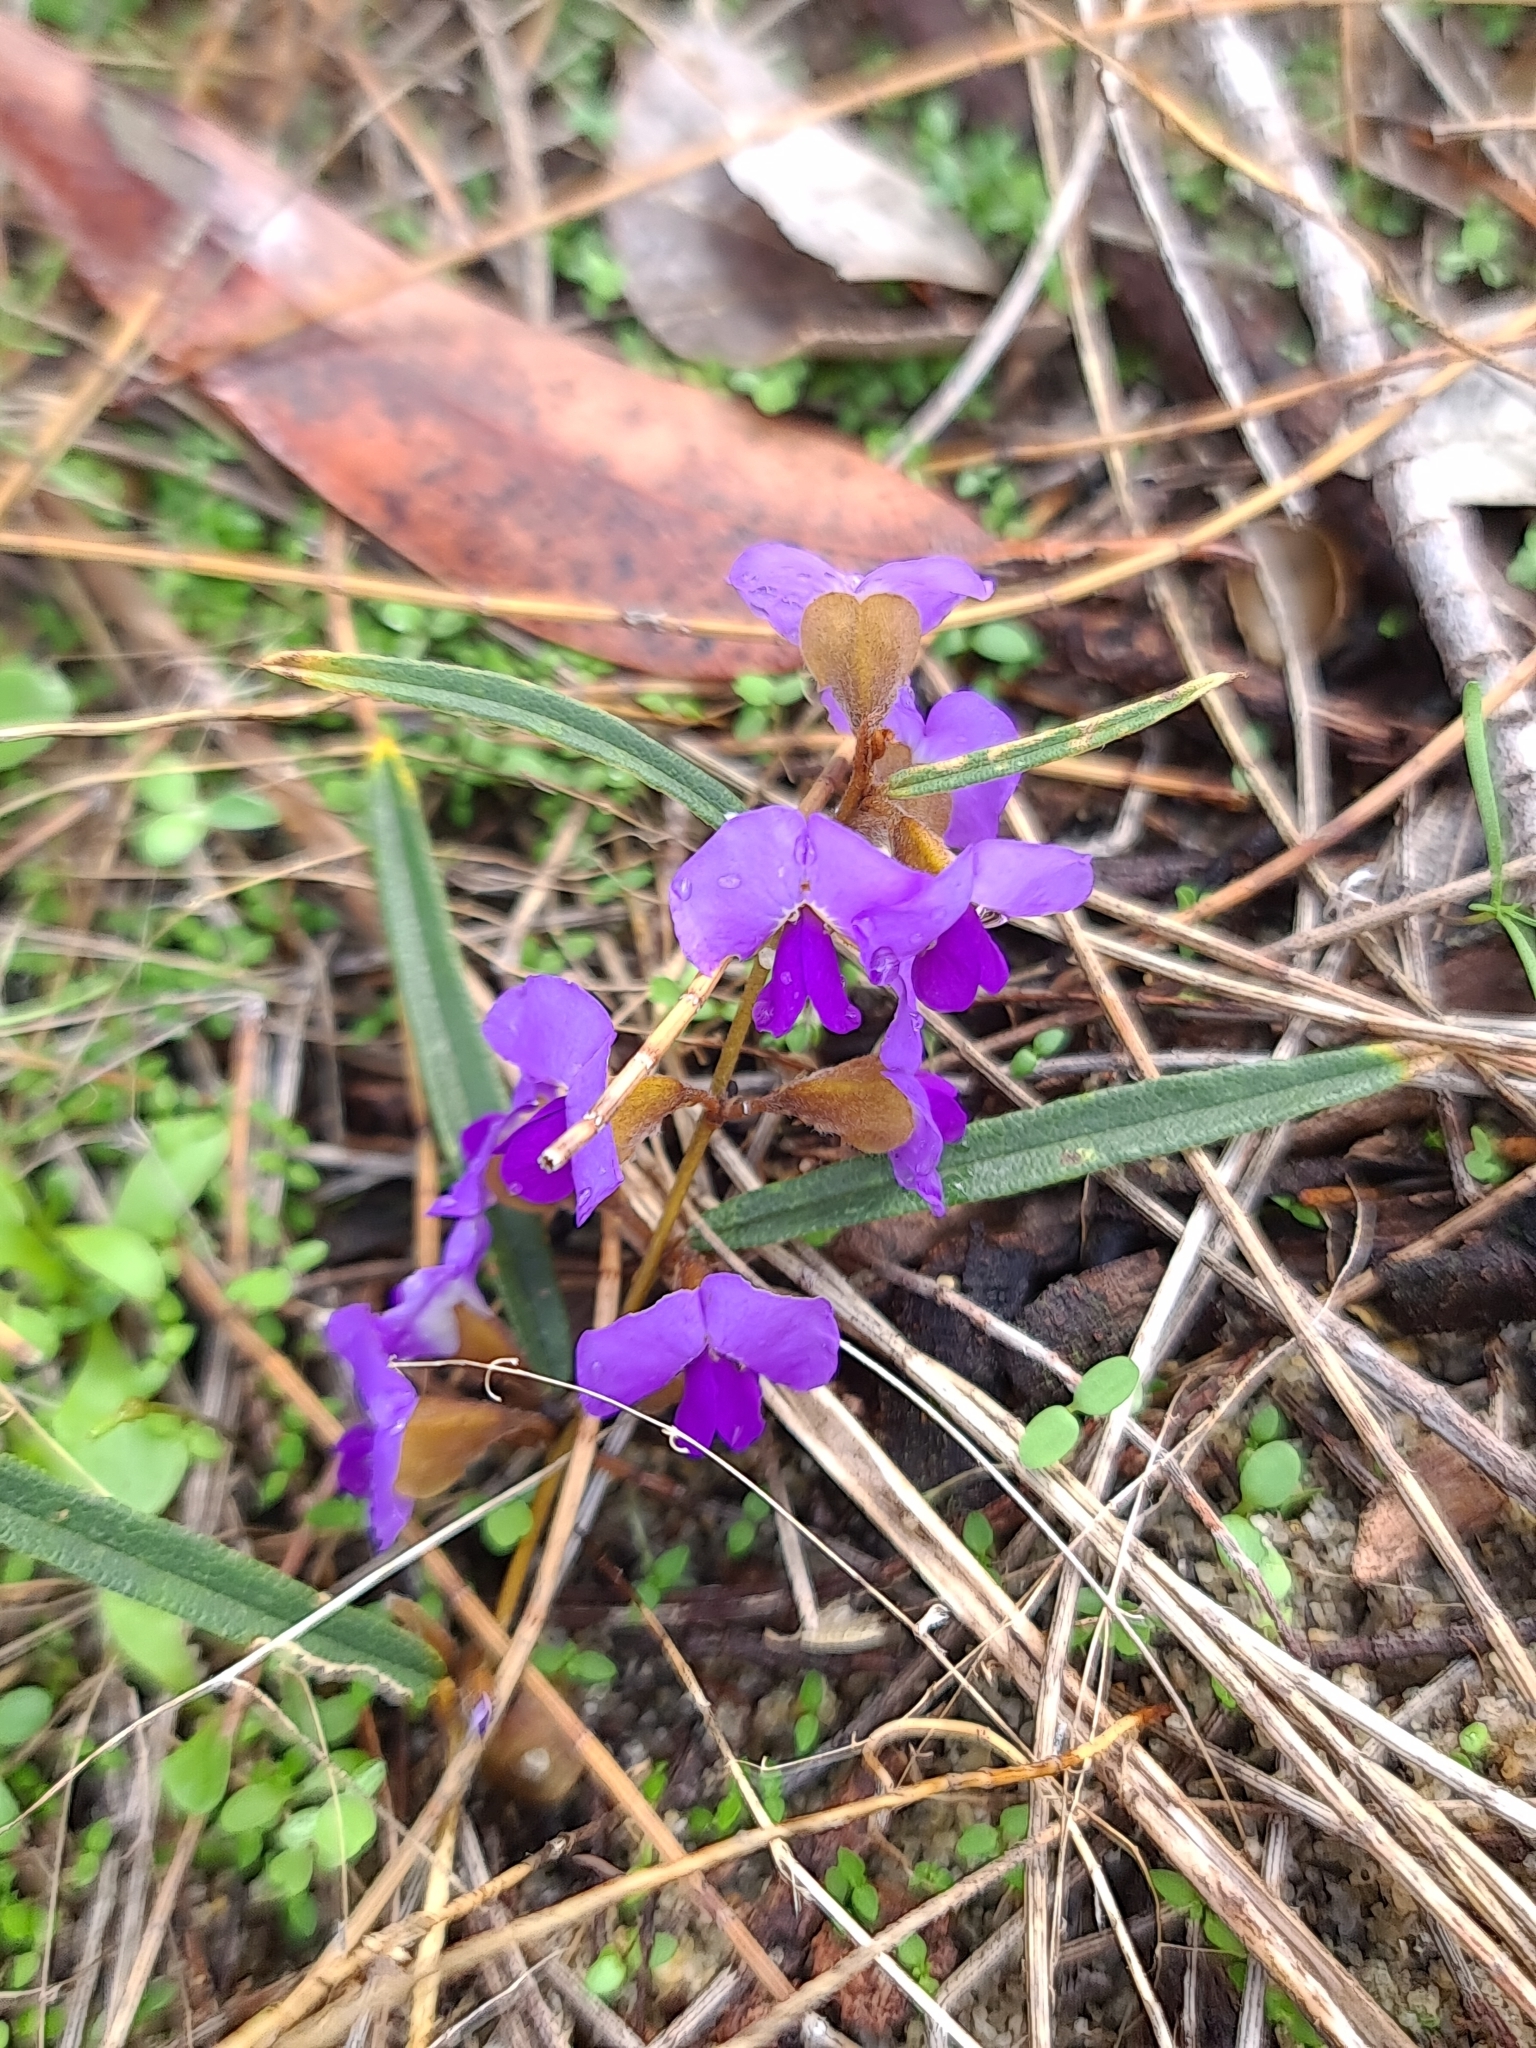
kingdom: Plantae
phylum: Tracheophyta
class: Magnoliopsida
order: Fabales
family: Fabaceae
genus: Hovea
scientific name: Hovea trisperma
